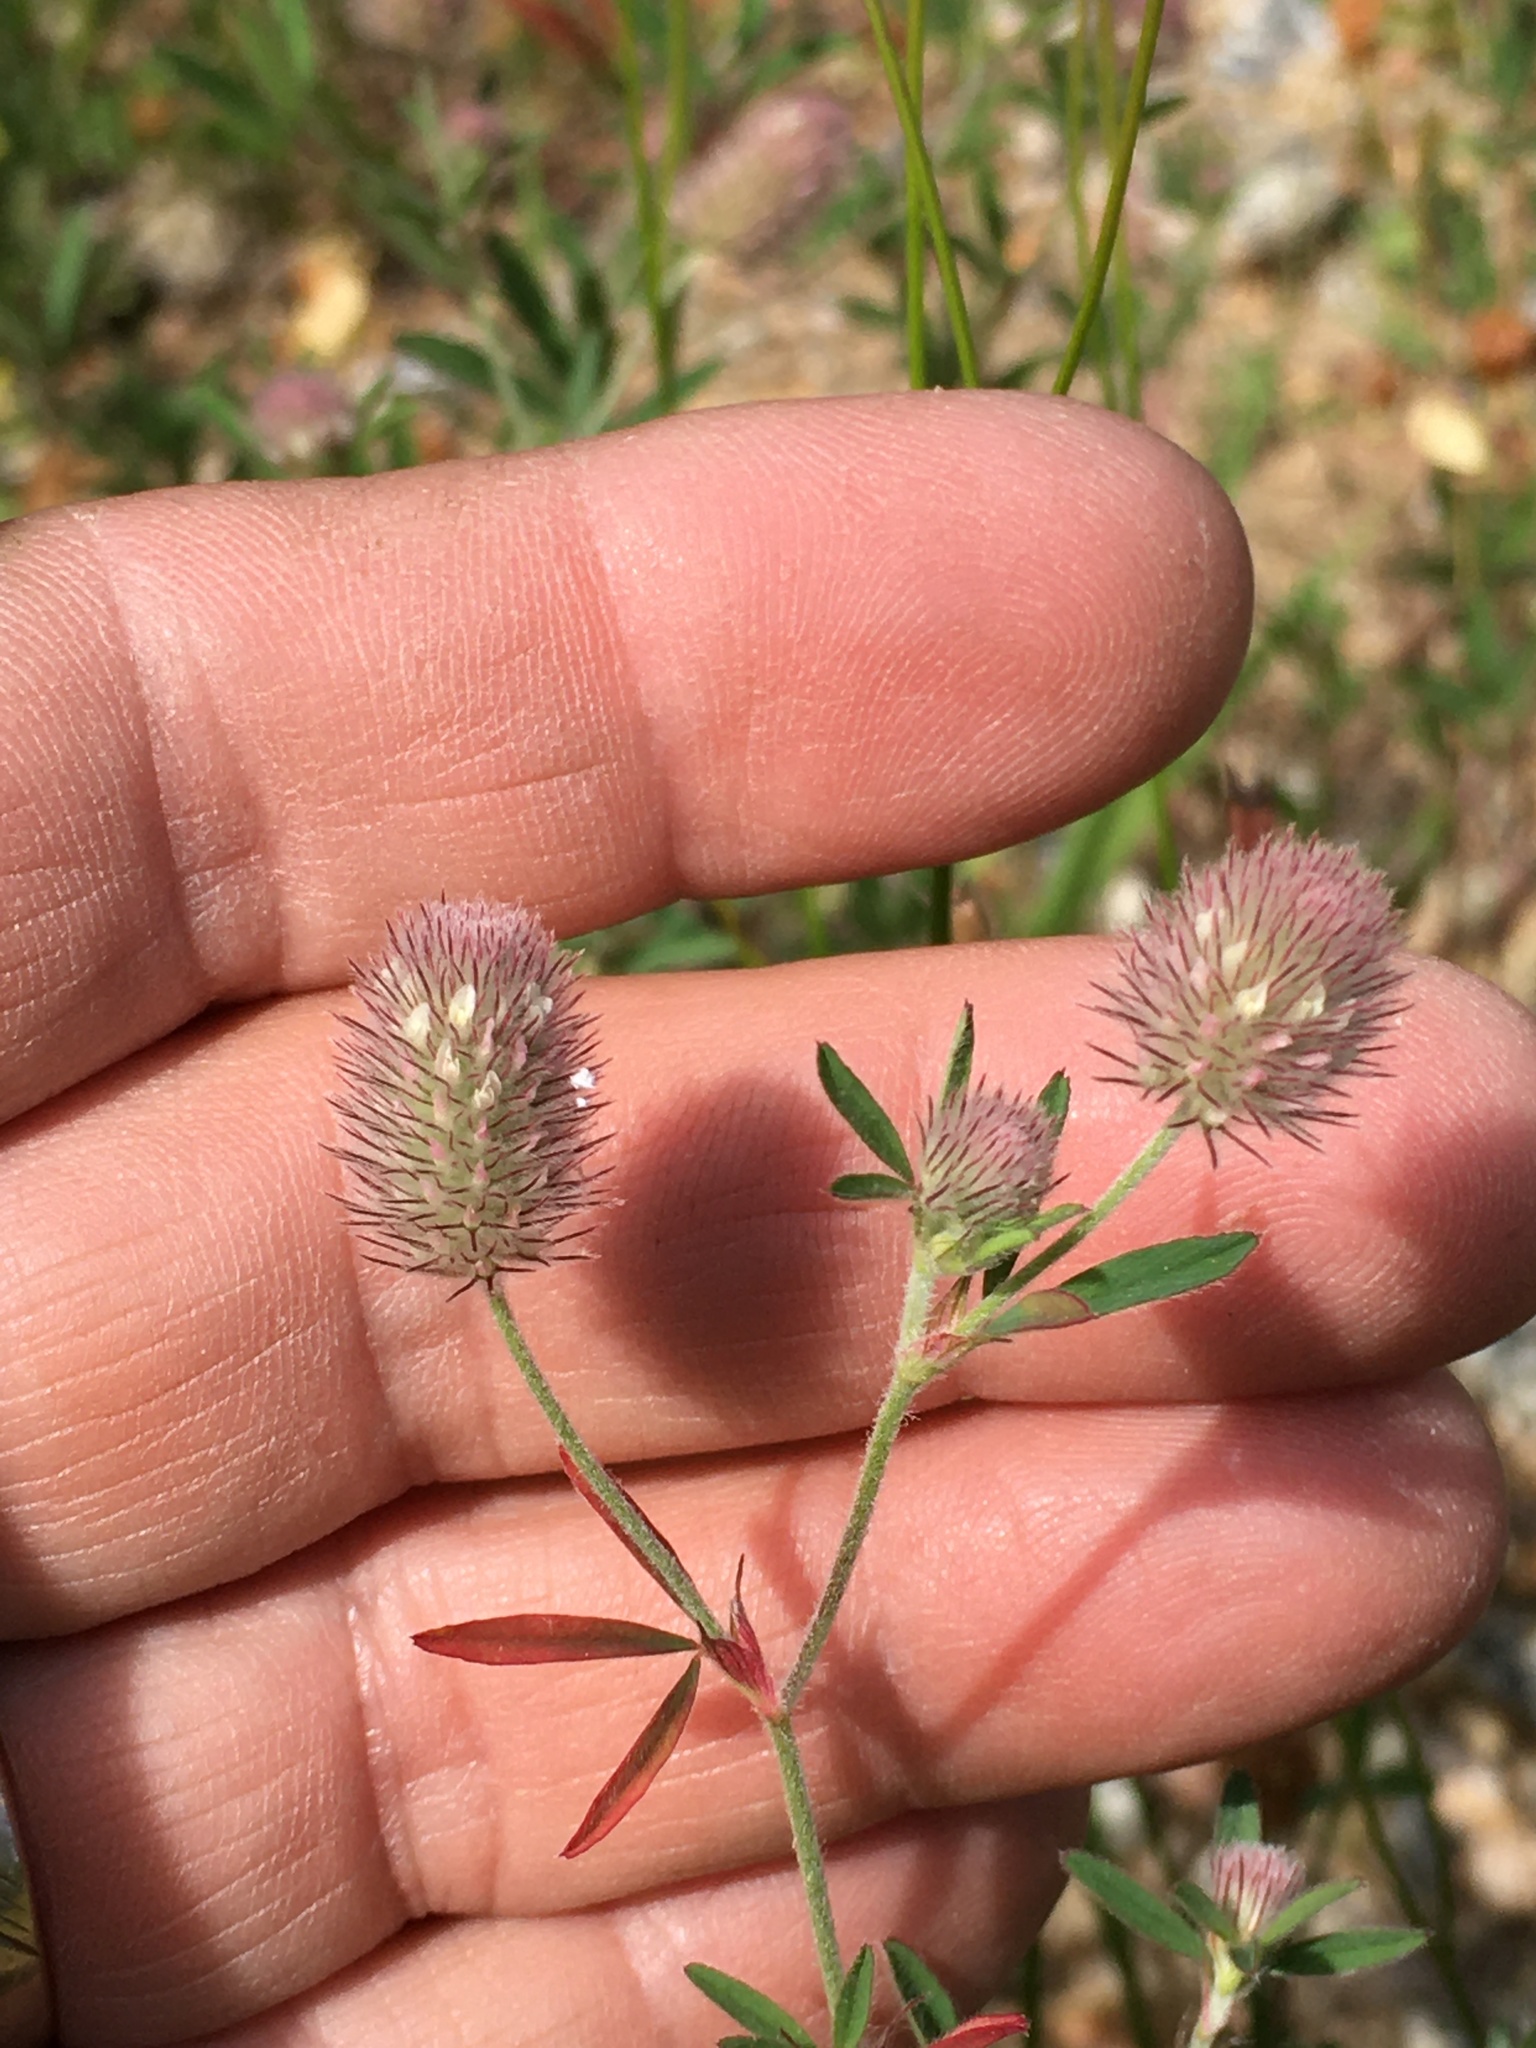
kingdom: Plantae
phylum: Tracheophyta
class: Magnoliopsida
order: Fabales
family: Fabaceae
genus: Trifolium
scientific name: Trifolium arvense
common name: Hare's-foot clover
